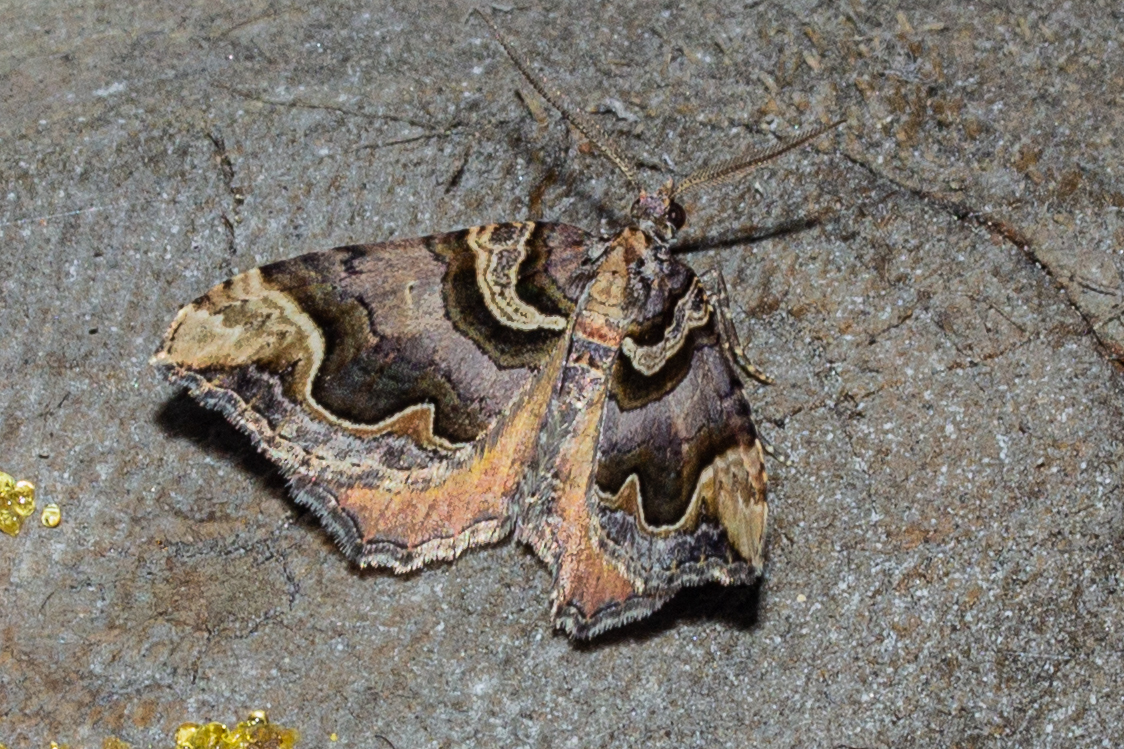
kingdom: Animalia
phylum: Arthropoda
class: Insecta
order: Lepidoptera
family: Geometridae
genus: Asaphodes
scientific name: Asaphodes chlamydota
